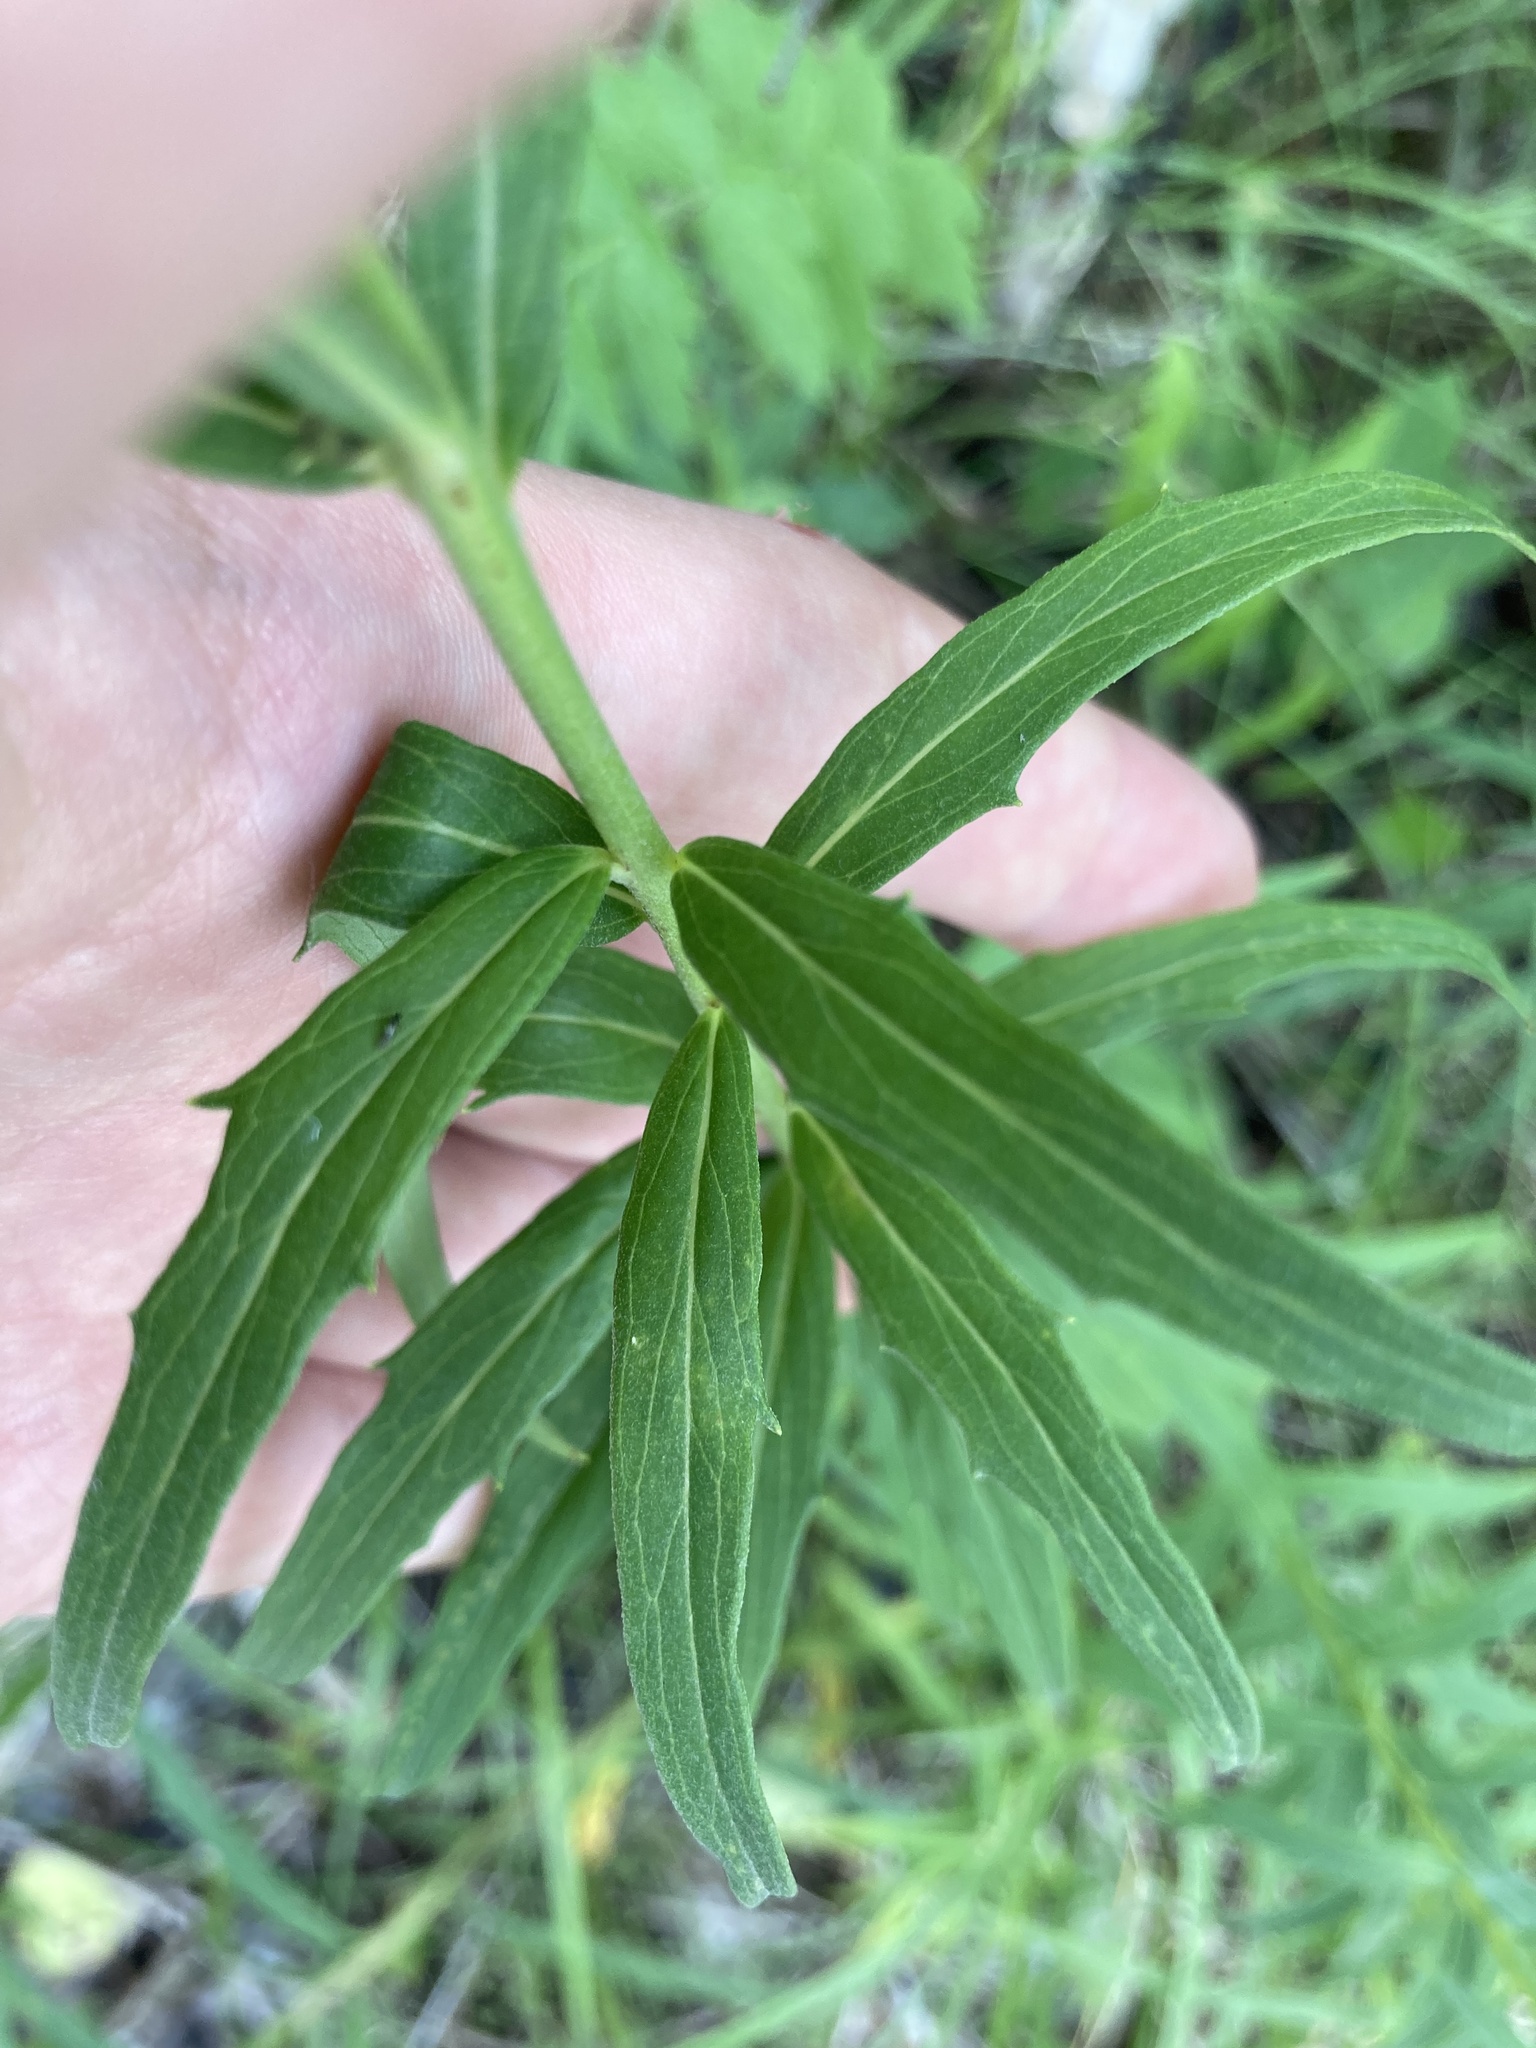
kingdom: Plantae
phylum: Tracheophyta
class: Magnoliopsida
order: Asterales
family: Asteraceae
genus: Hieracium
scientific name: Hieracium umbellatum
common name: Northern hawkweed
